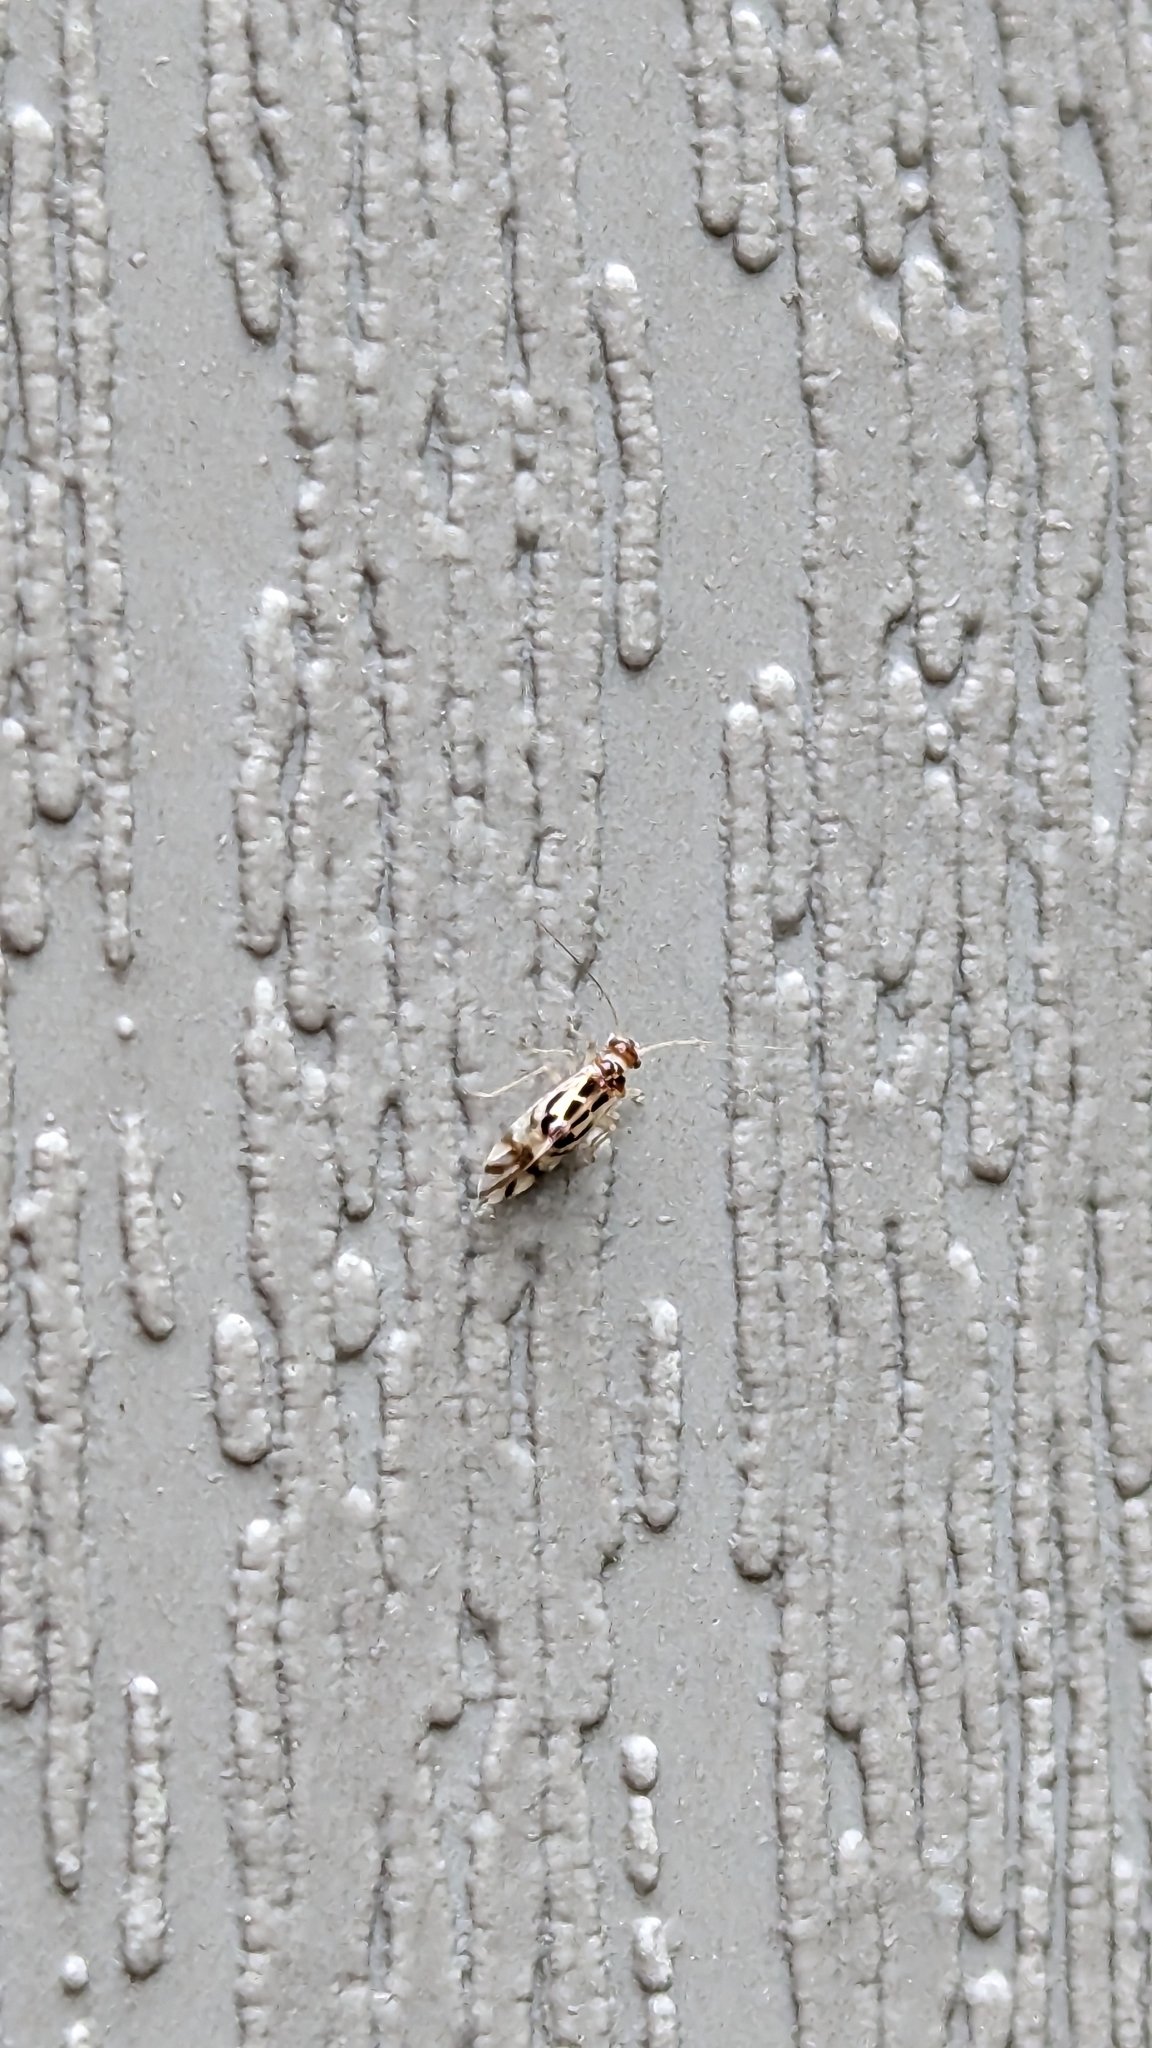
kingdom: Animalia
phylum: Arthropoda
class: Insecta
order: Psocodea
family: Stenopsocidae
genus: Graphopsocus
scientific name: Graphopsocus cruciatus
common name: Lizard bark louse
